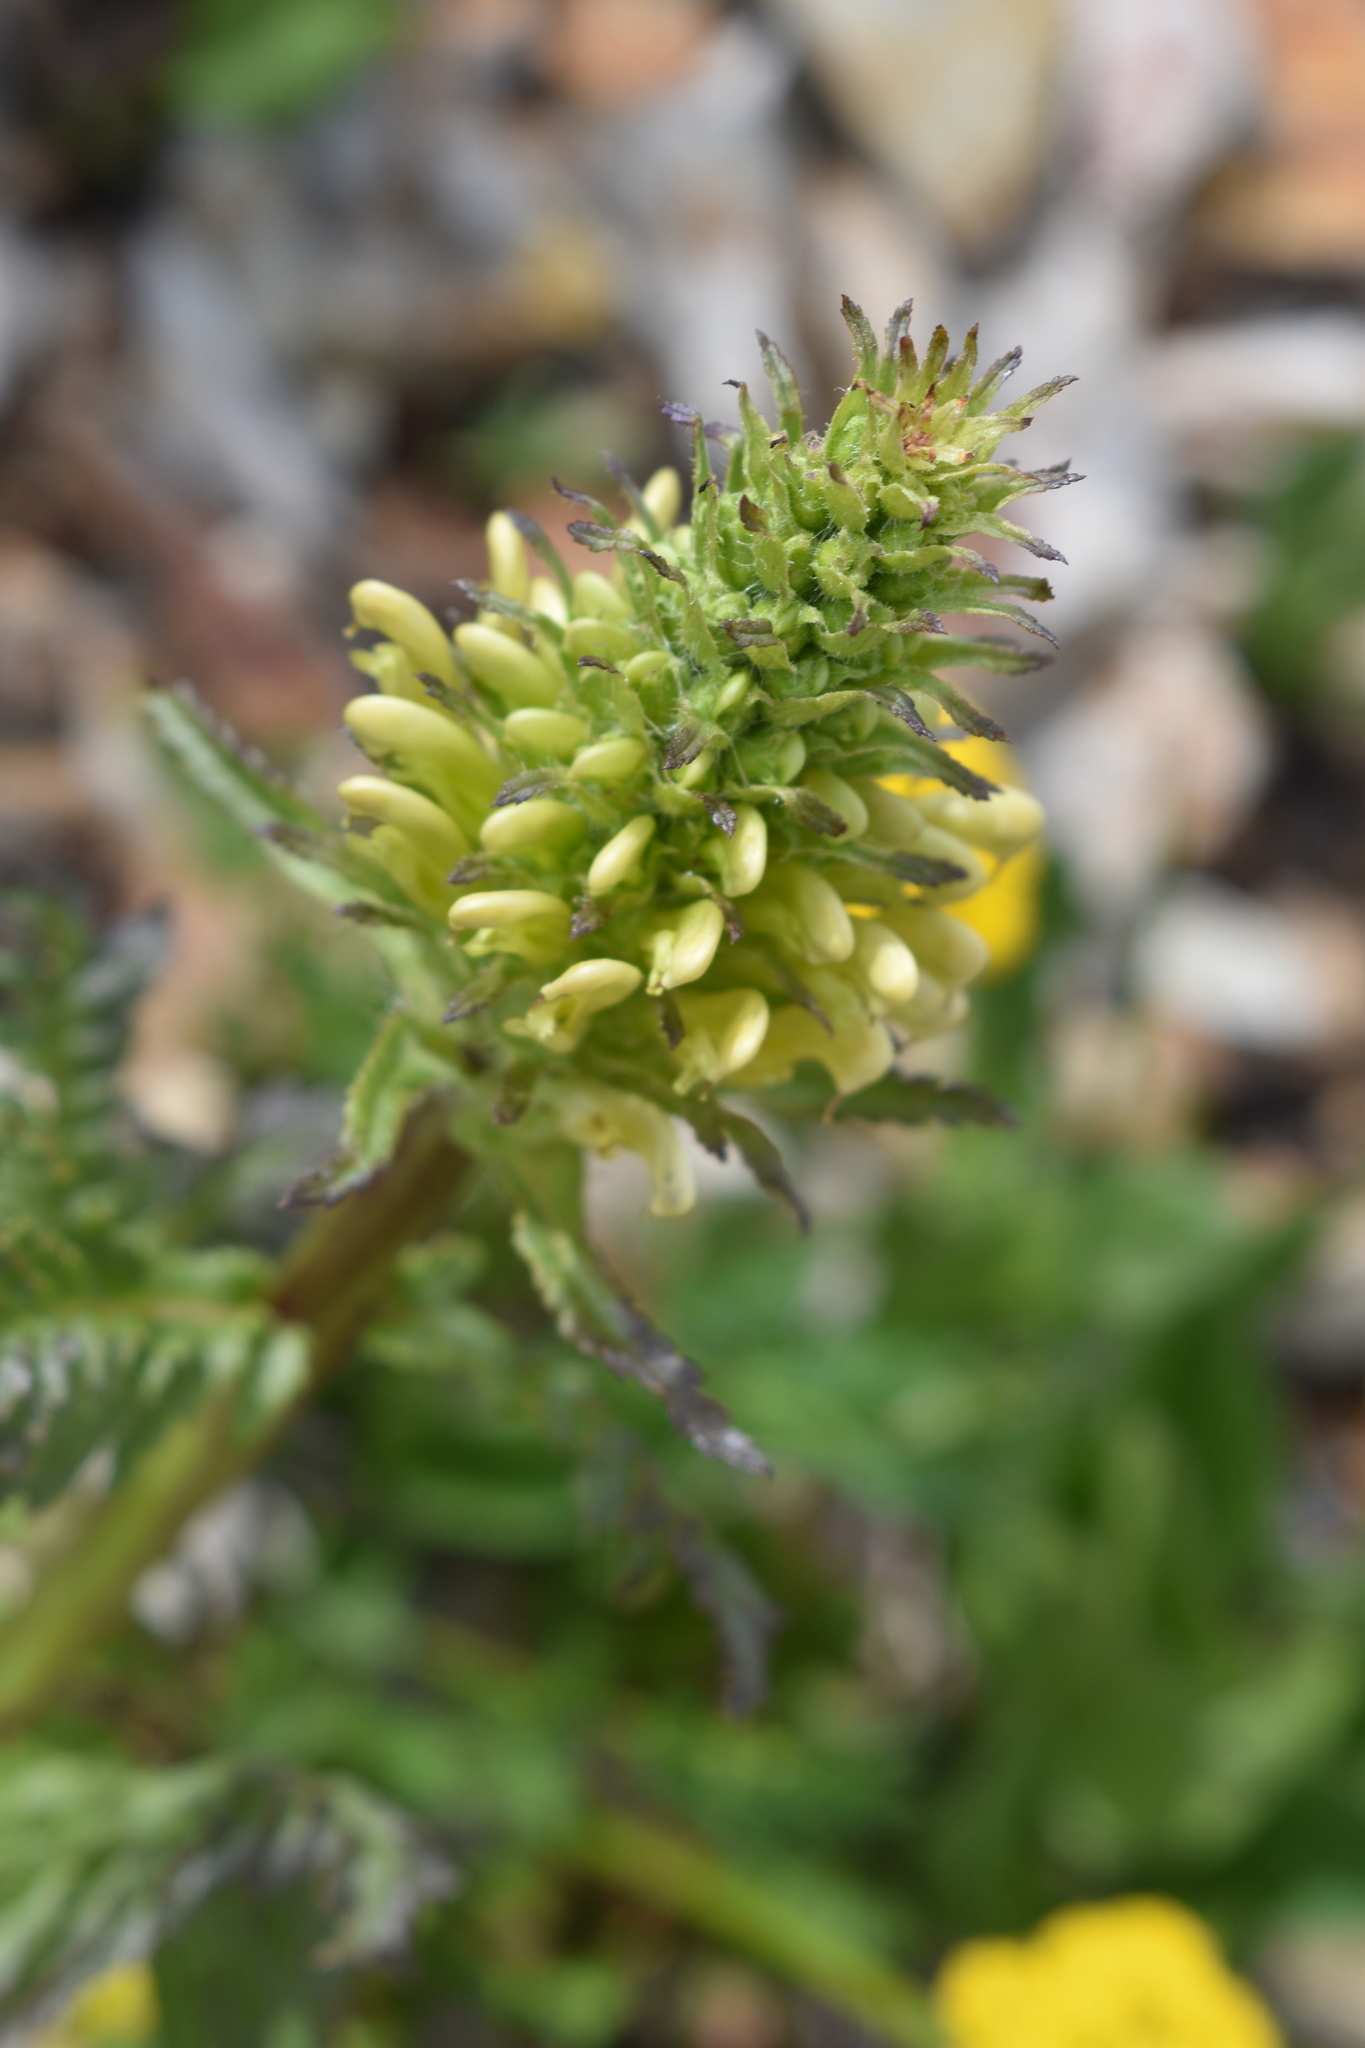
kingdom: Plantae
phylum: Tracheophyta
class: Magnoliopsida
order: Lamiales
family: Orobanchaceae
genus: Pedicularis
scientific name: Pedicularis bracteosa
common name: Bracted lousewort
